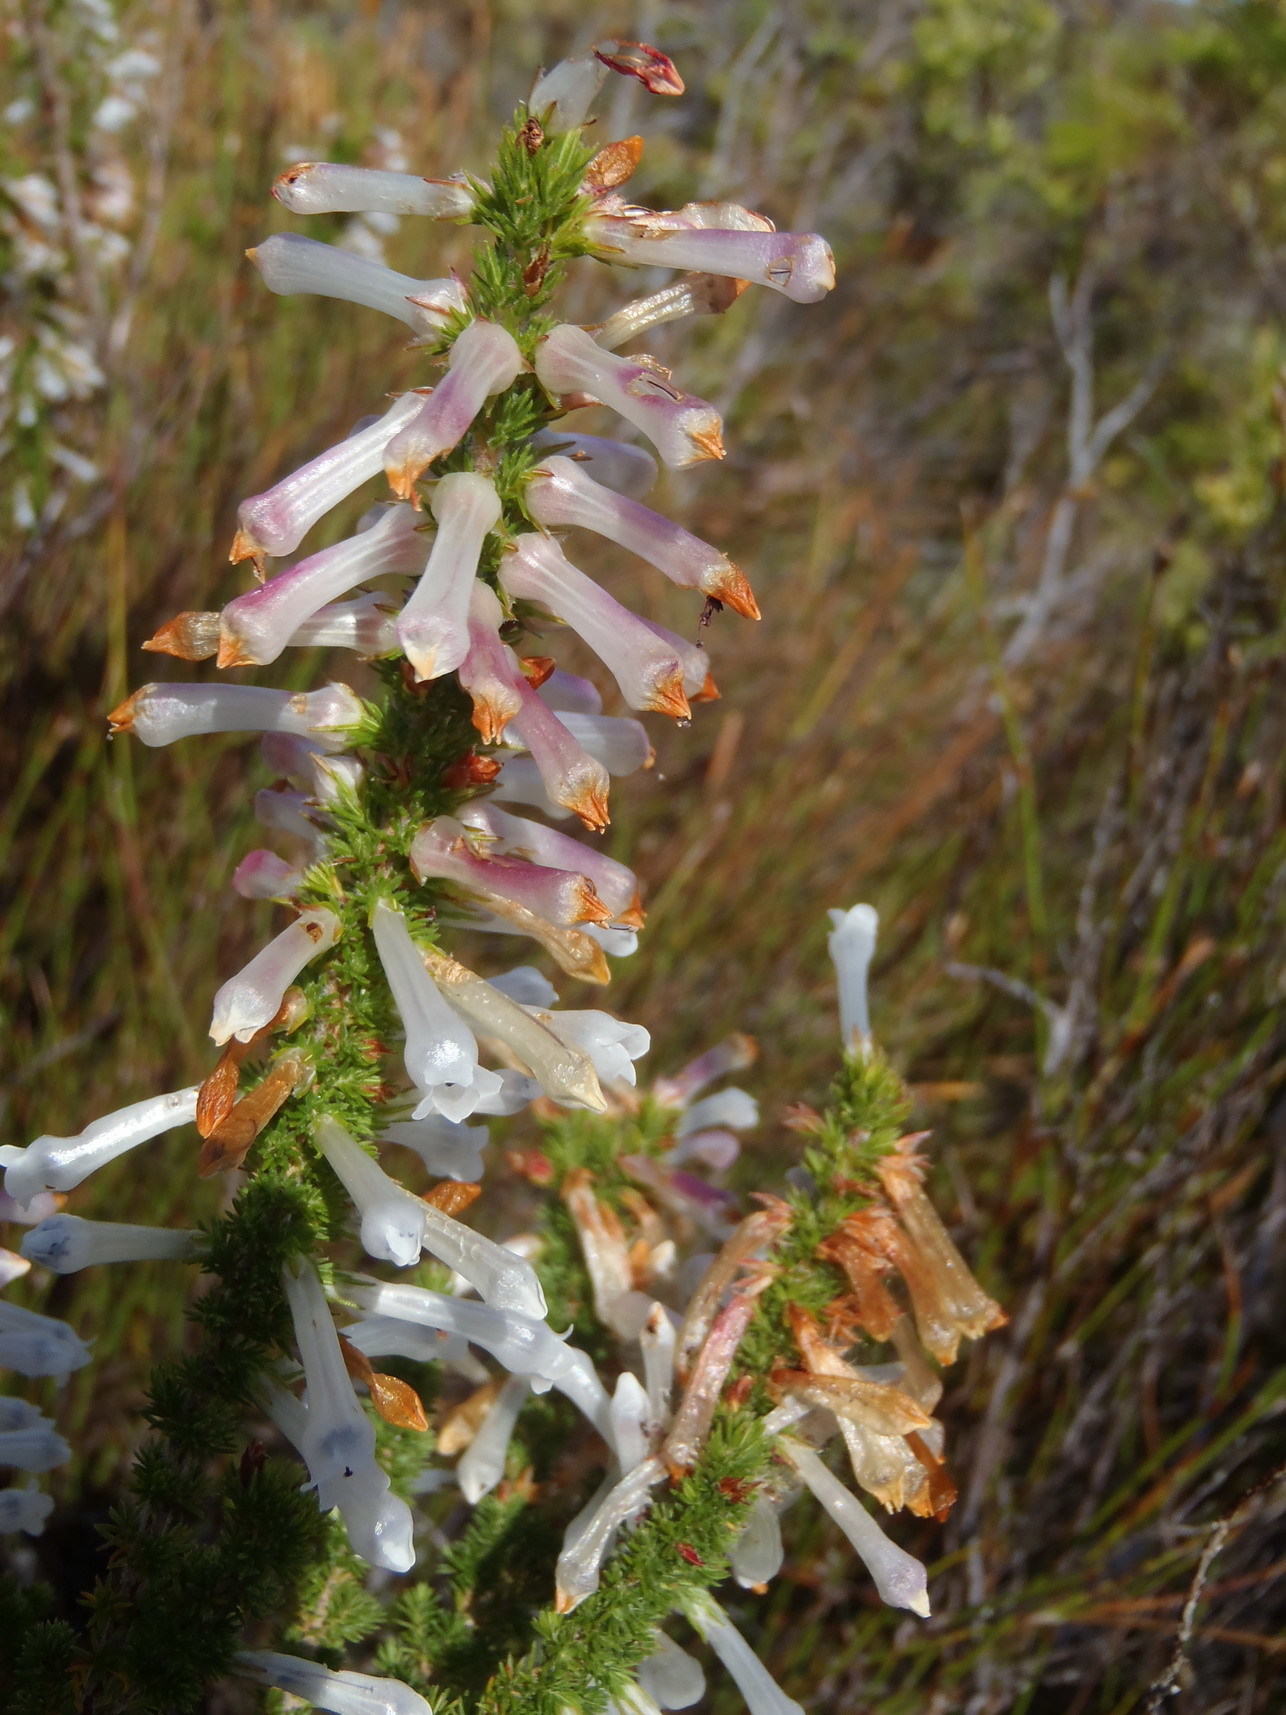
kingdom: Plantae
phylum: Tracheophyta
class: Magnoliopsida
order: Ericales
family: Ericaceae
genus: Erica
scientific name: Erica colorans
